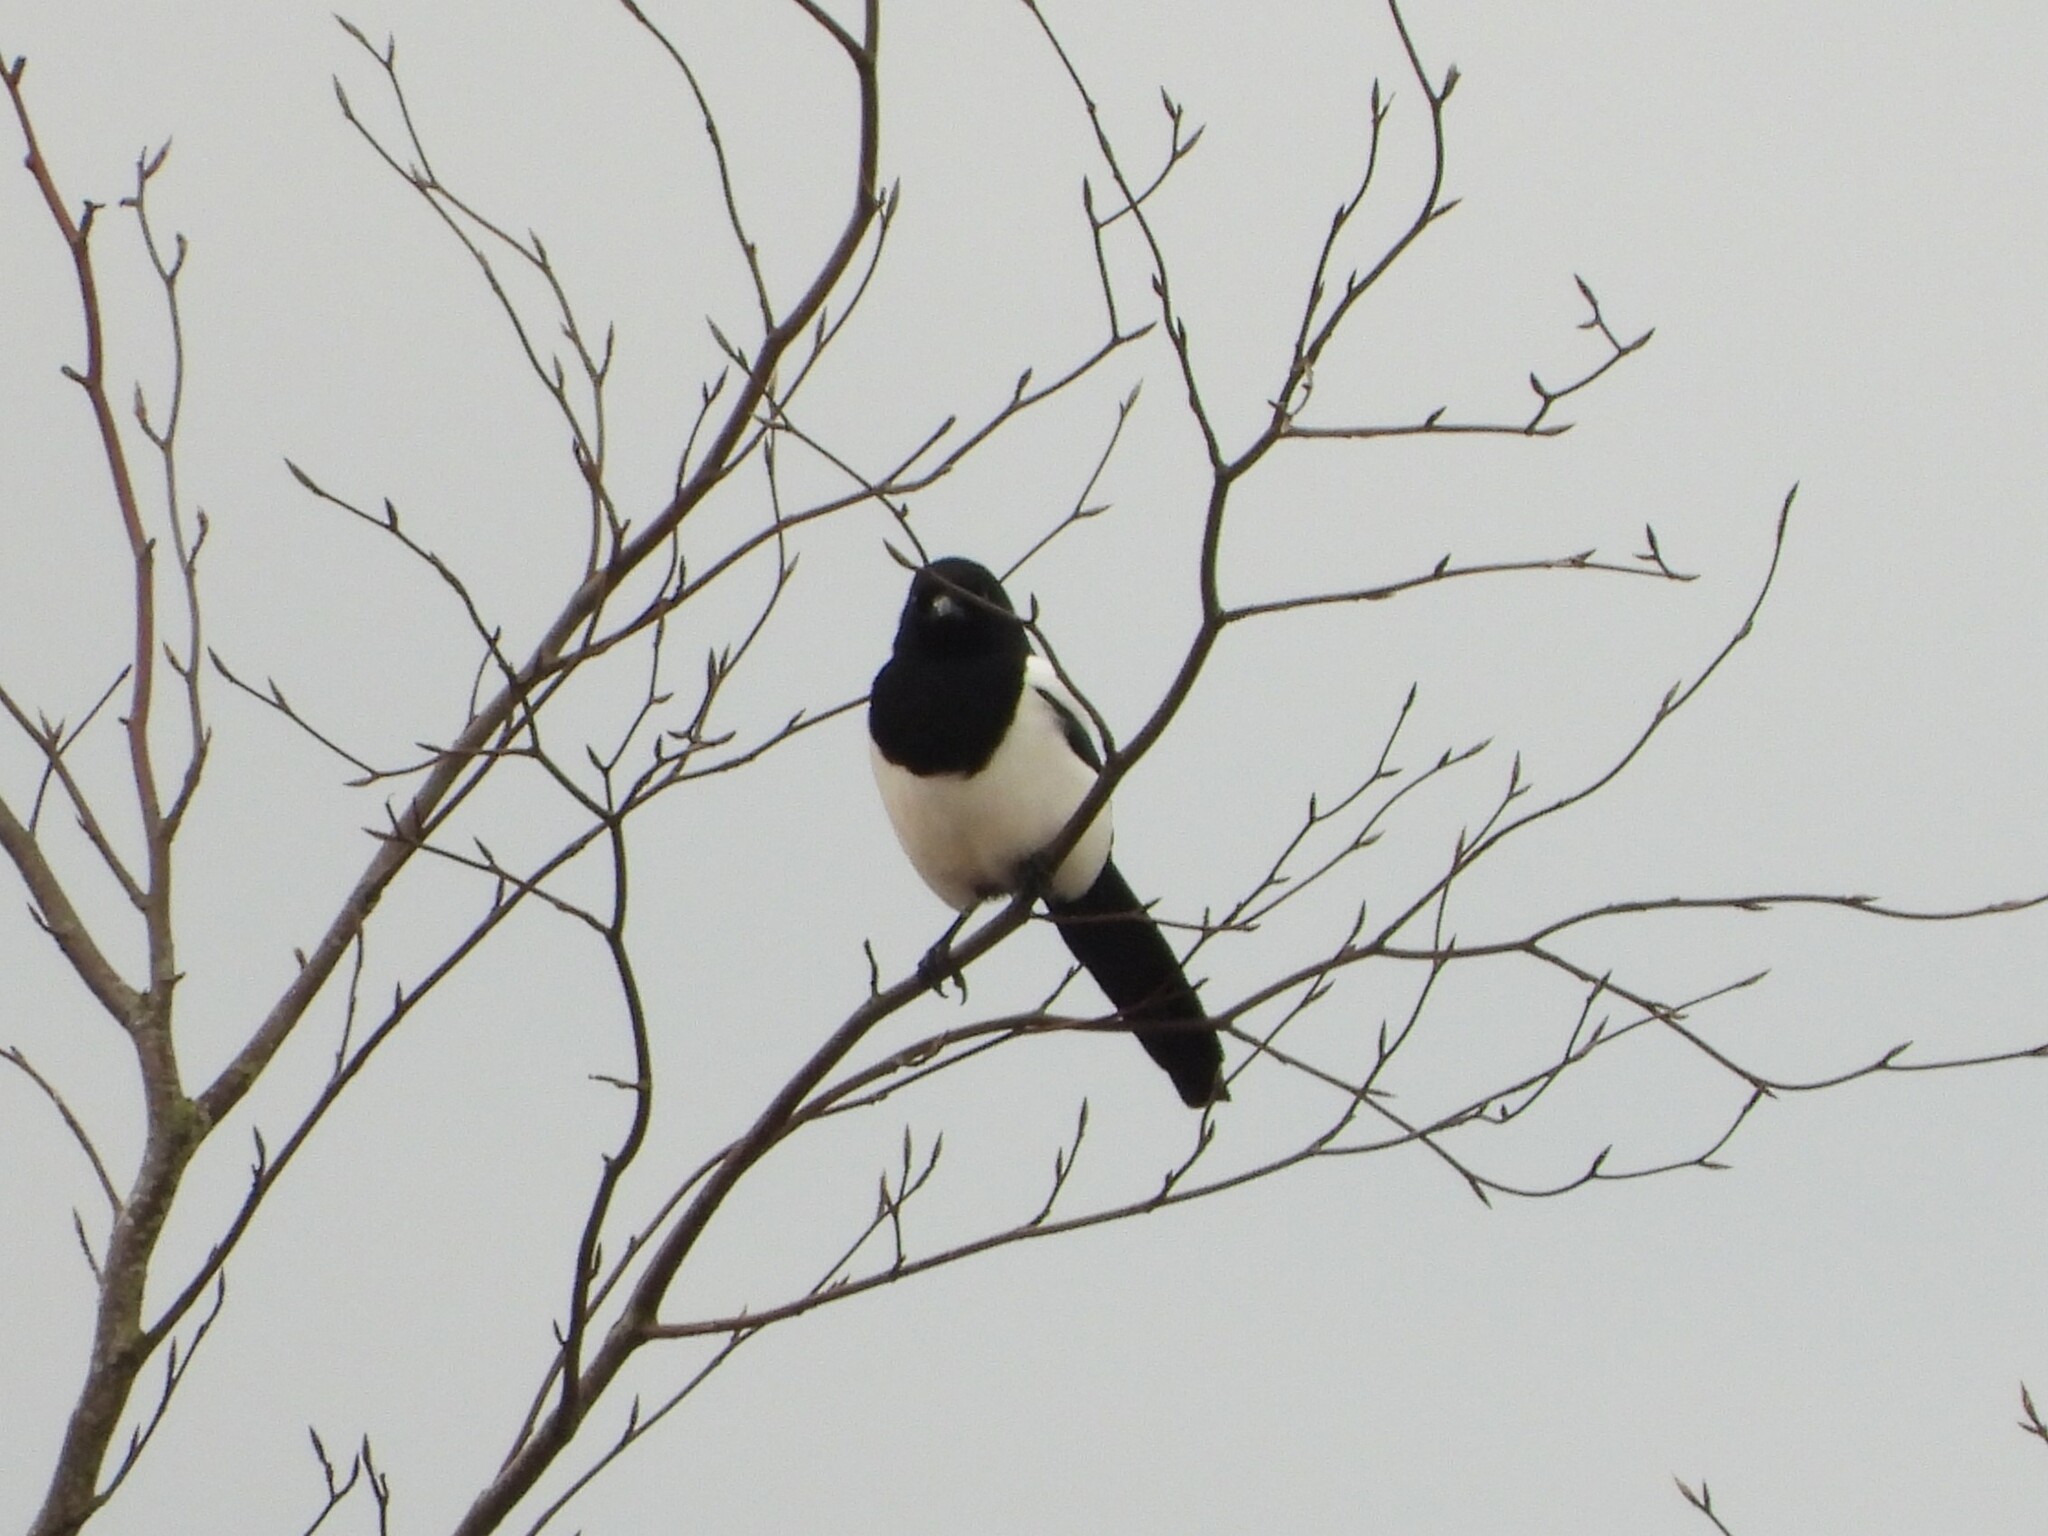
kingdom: Animalia
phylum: Chordata
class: Aves
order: Passeriformes
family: Corvidae
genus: Pica
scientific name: Pica pica
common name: Eurasian magpie
